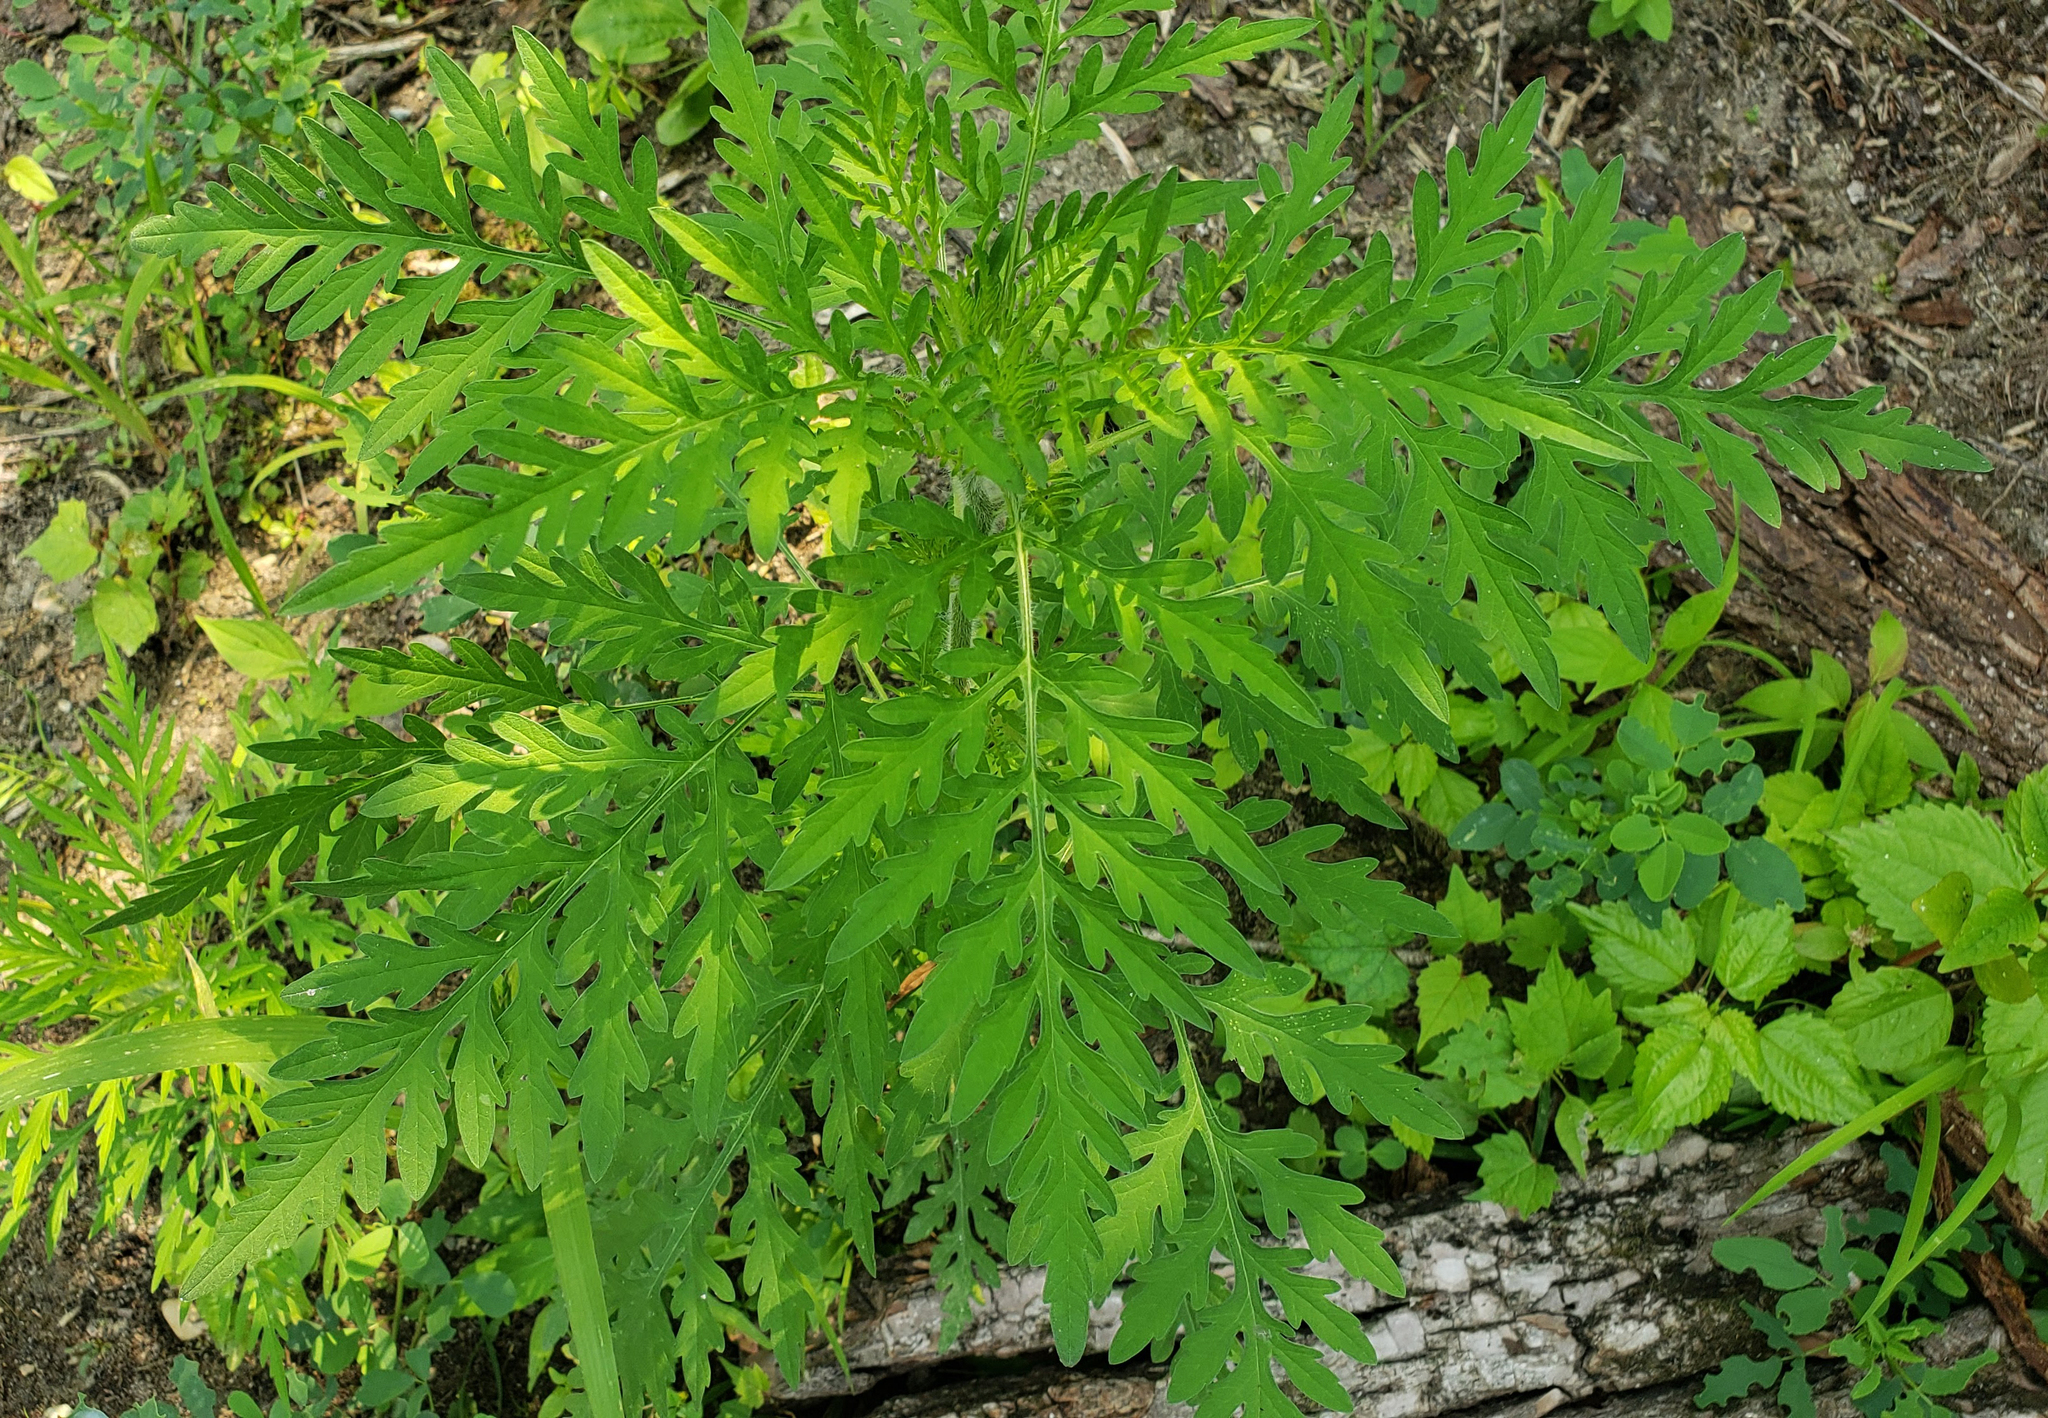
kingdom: Plantae
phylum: Tracheophyta
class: Magnoliopsida
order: Asterales
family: Asteraceae
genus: Ambrosia
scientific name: Ambrosia artemisiifolia
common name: Annual ragweed
